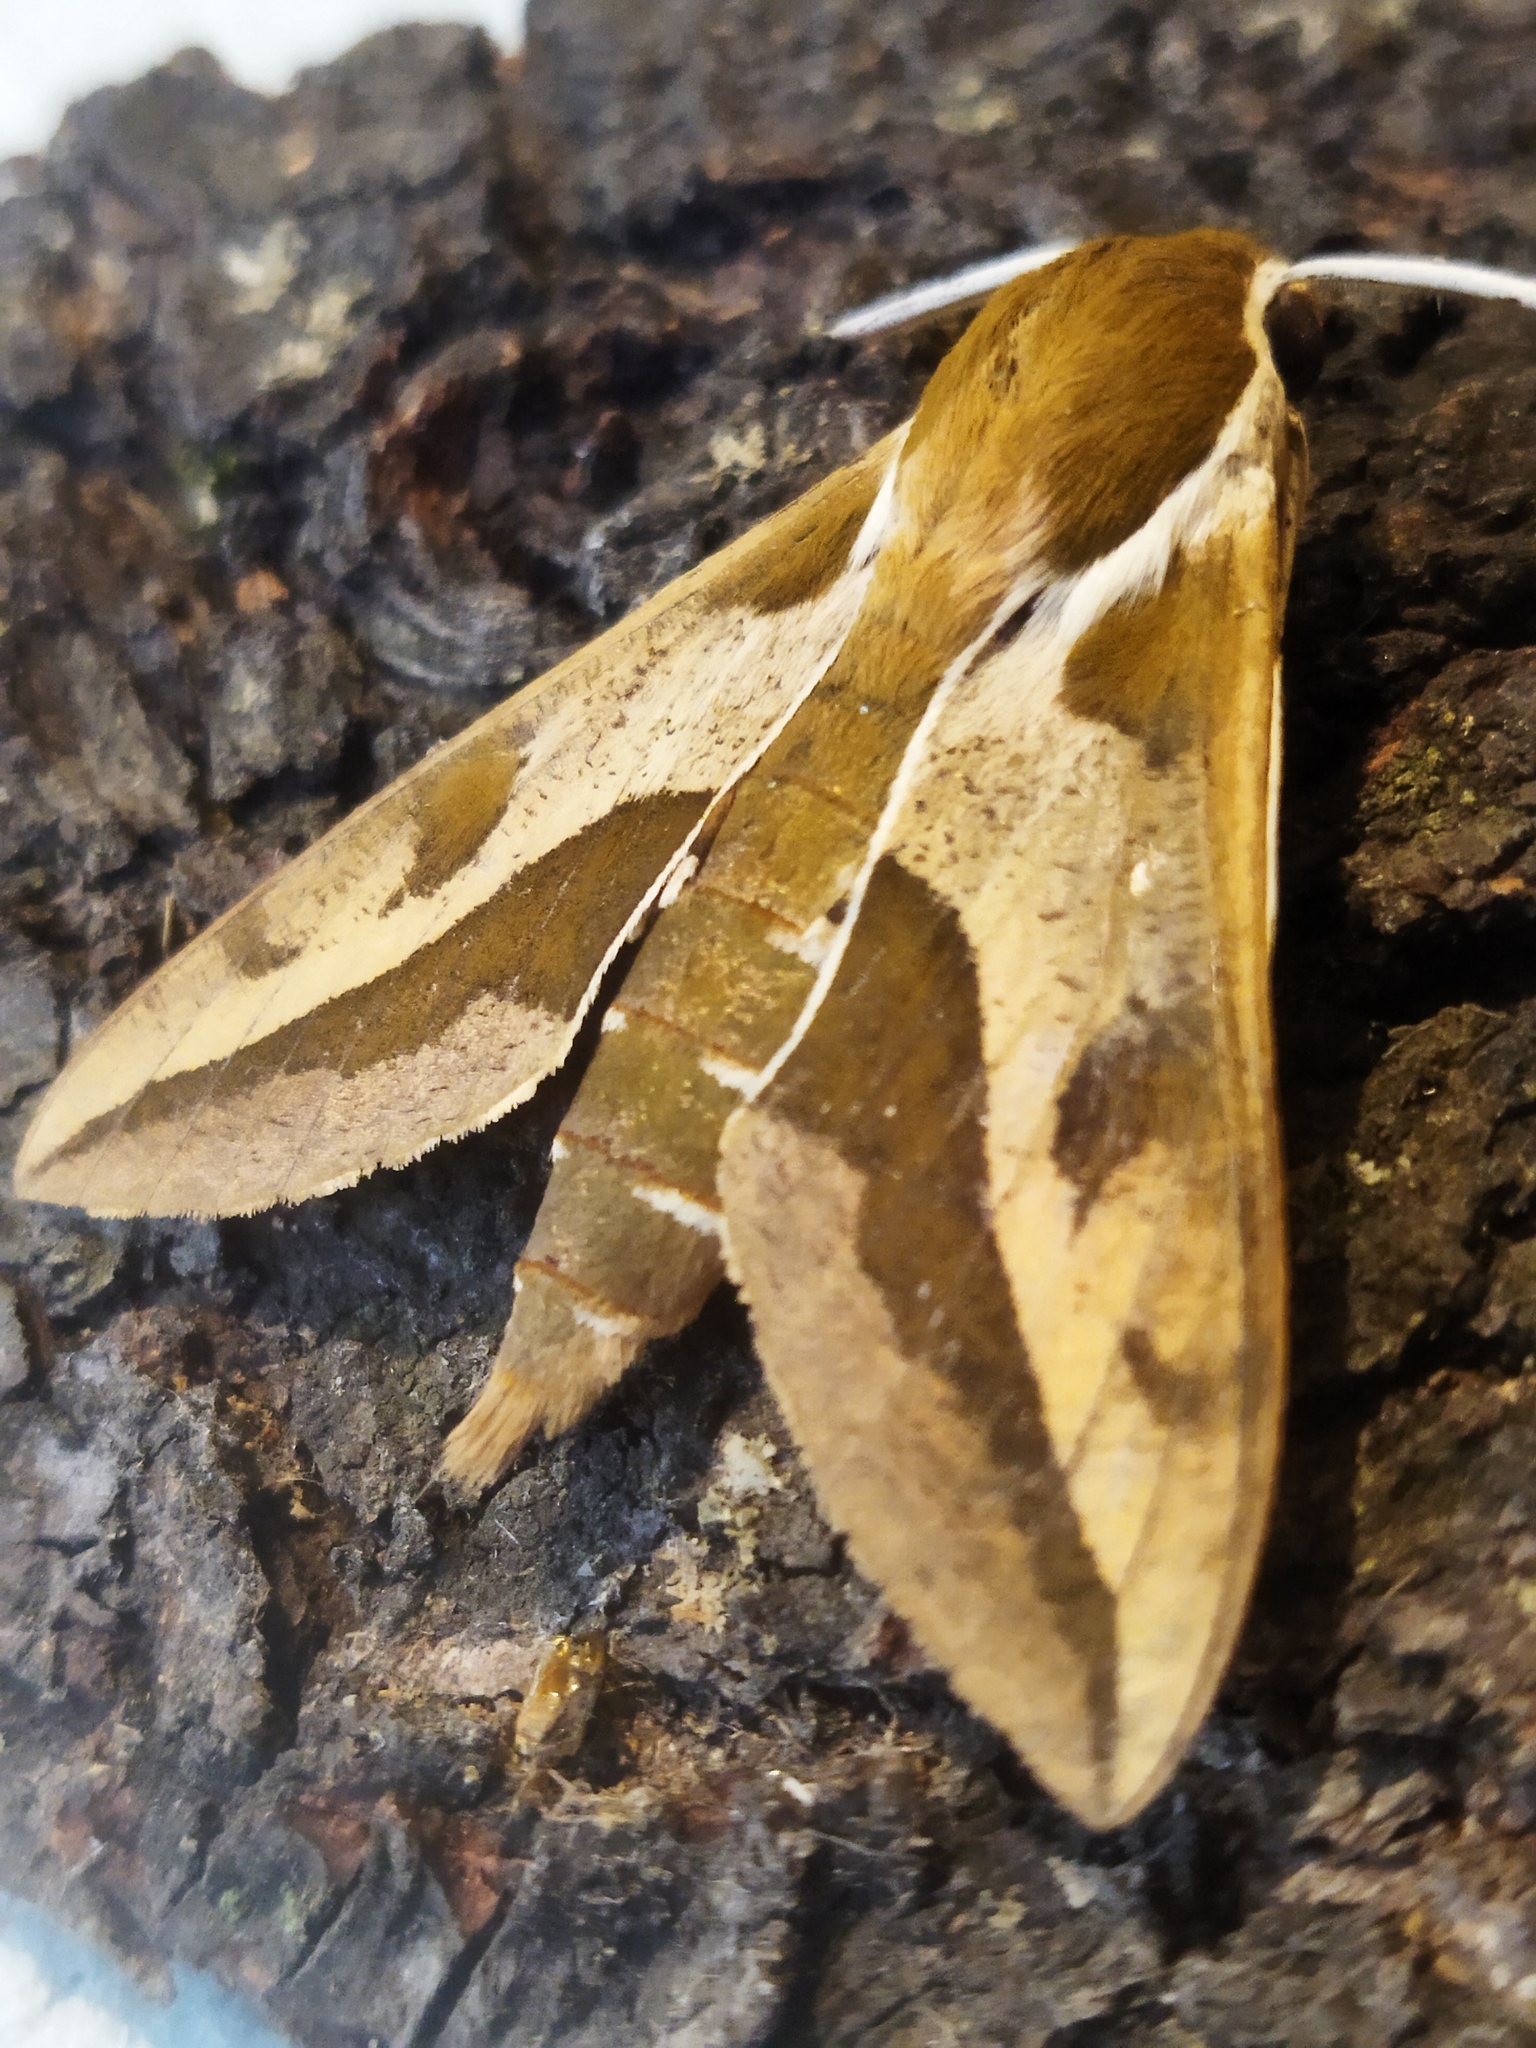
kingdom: Animalia
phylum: Arthropoda
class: Insecta
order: Lepidoptera
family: Sphingidae
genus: Hyles
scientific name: Hyles euphorbiae
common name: Spurge hawk-moth
